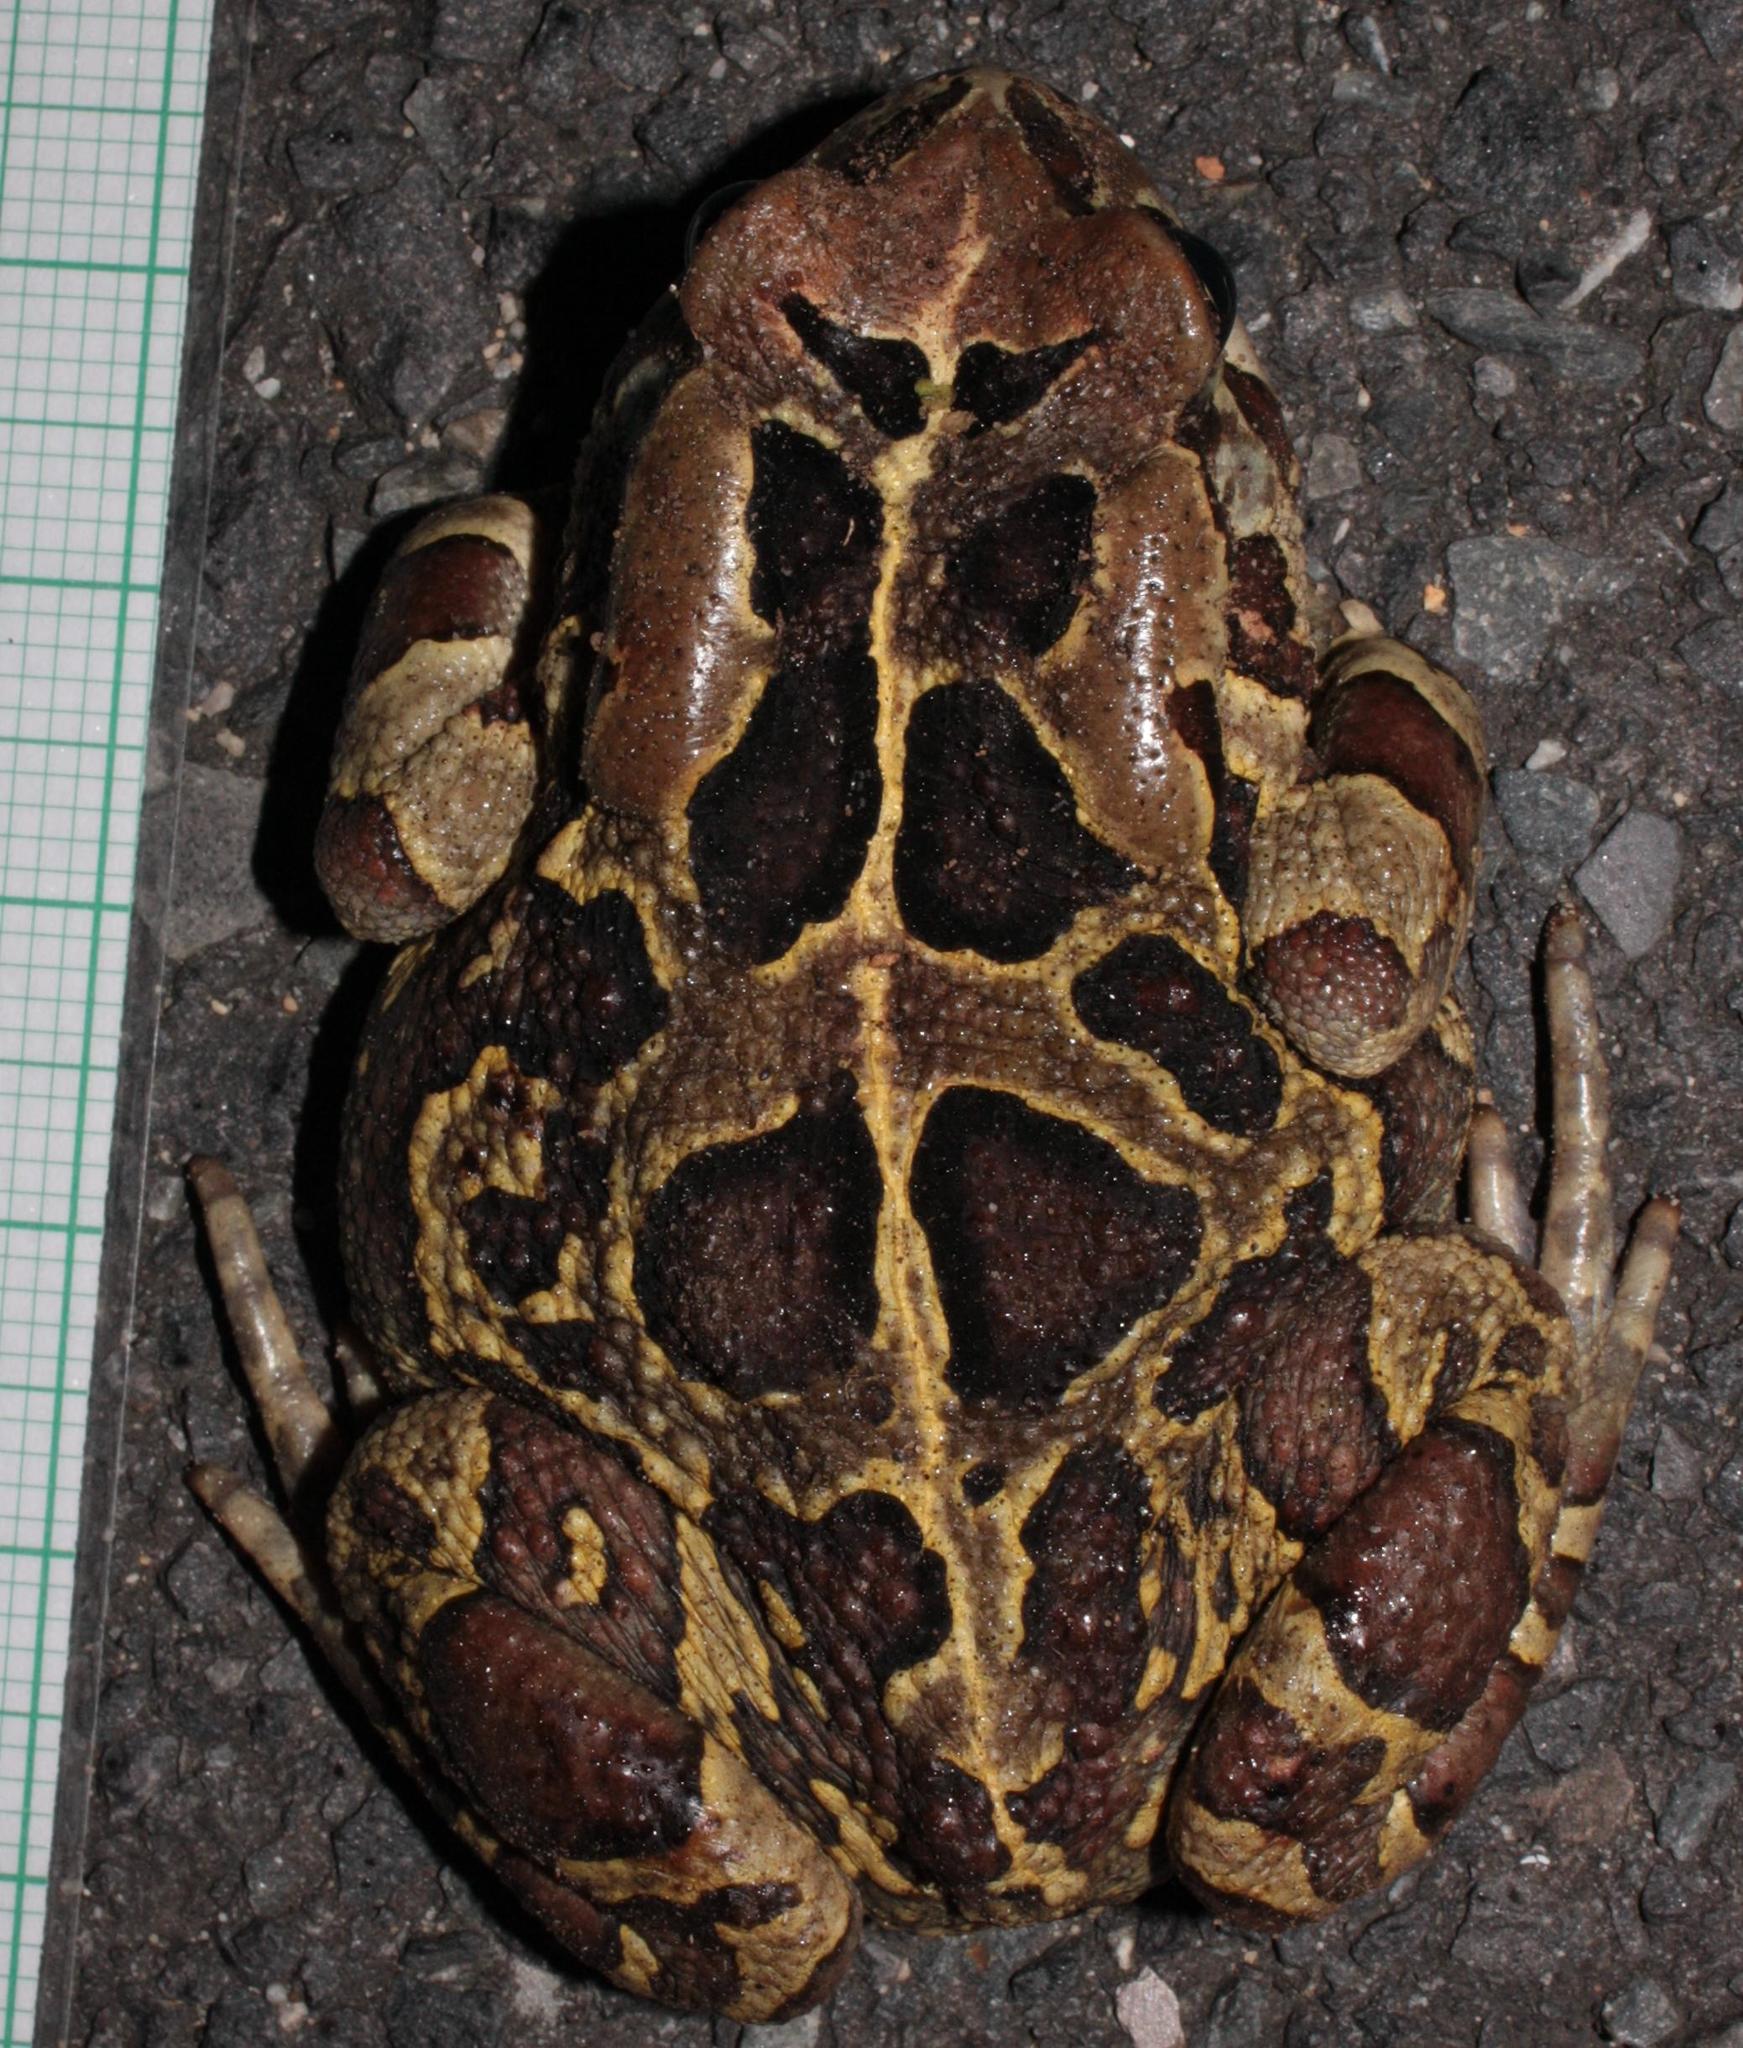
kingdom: Animalia
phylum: Chordata
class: Amphibia
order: Anura
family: Bufonidae
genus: Sclerophrys
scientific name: Sclerophrys pantherina
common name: Panther toad
